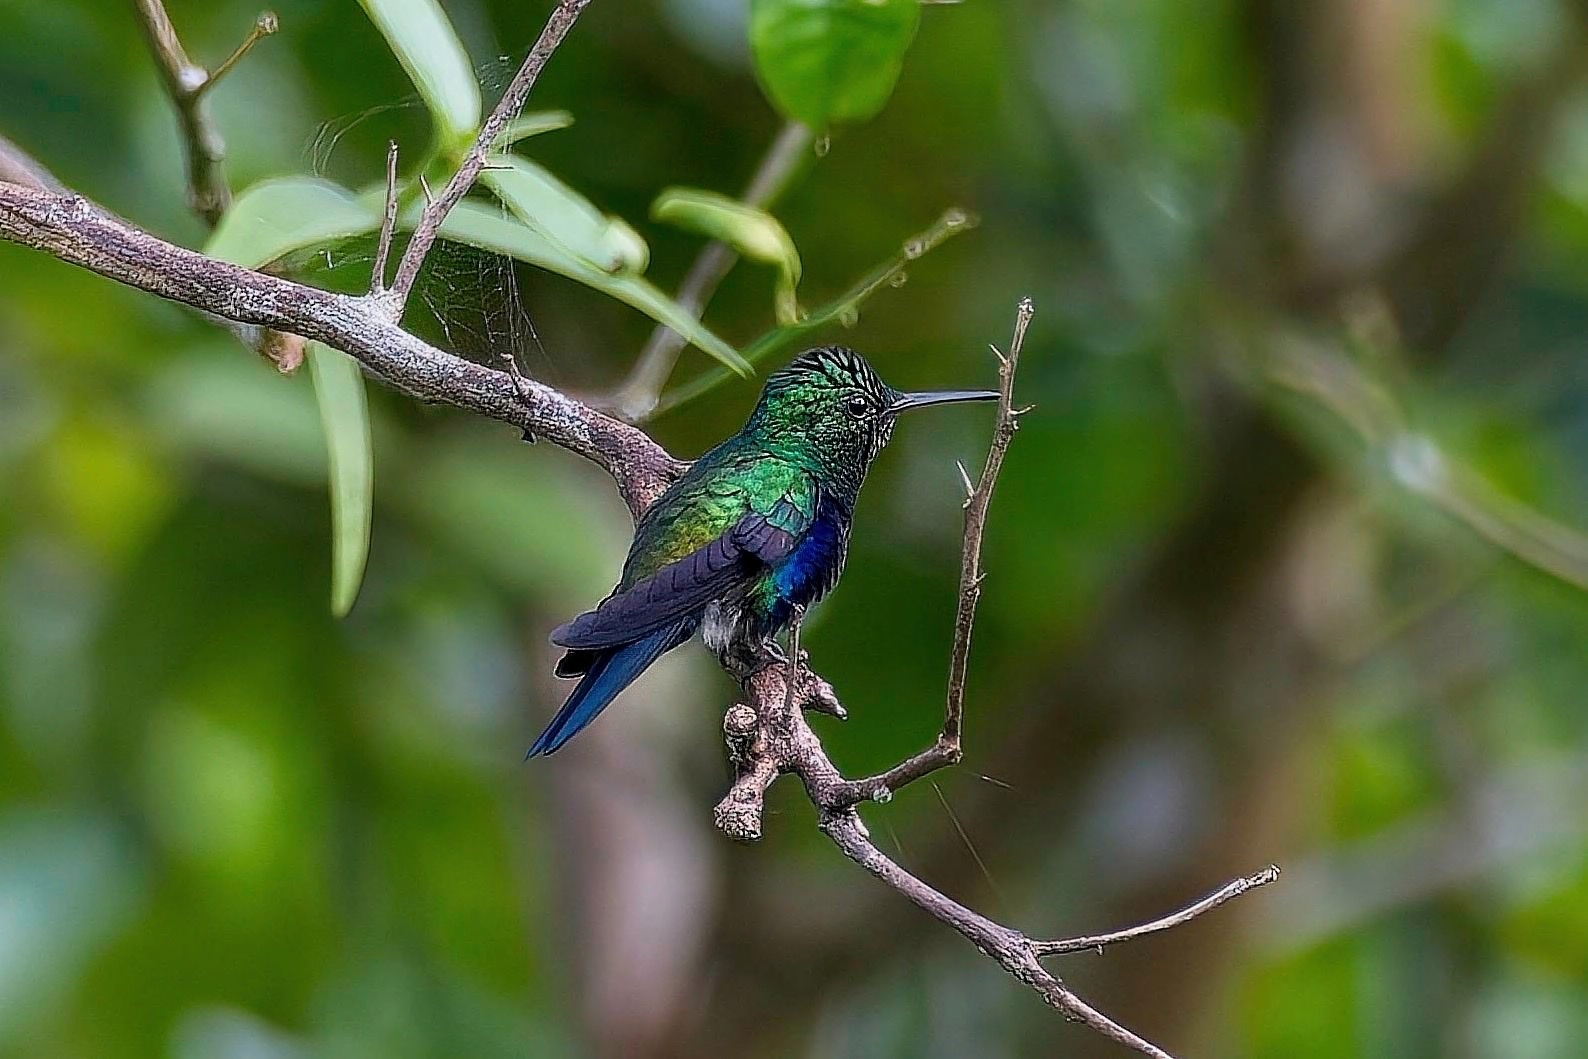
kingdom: Animalia
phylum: Chordata
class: Aves
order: Apodiformes
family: Trochilidae
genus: Chlorestes
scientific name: Chlorestes julie
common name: Violet-bellied hummingbird
